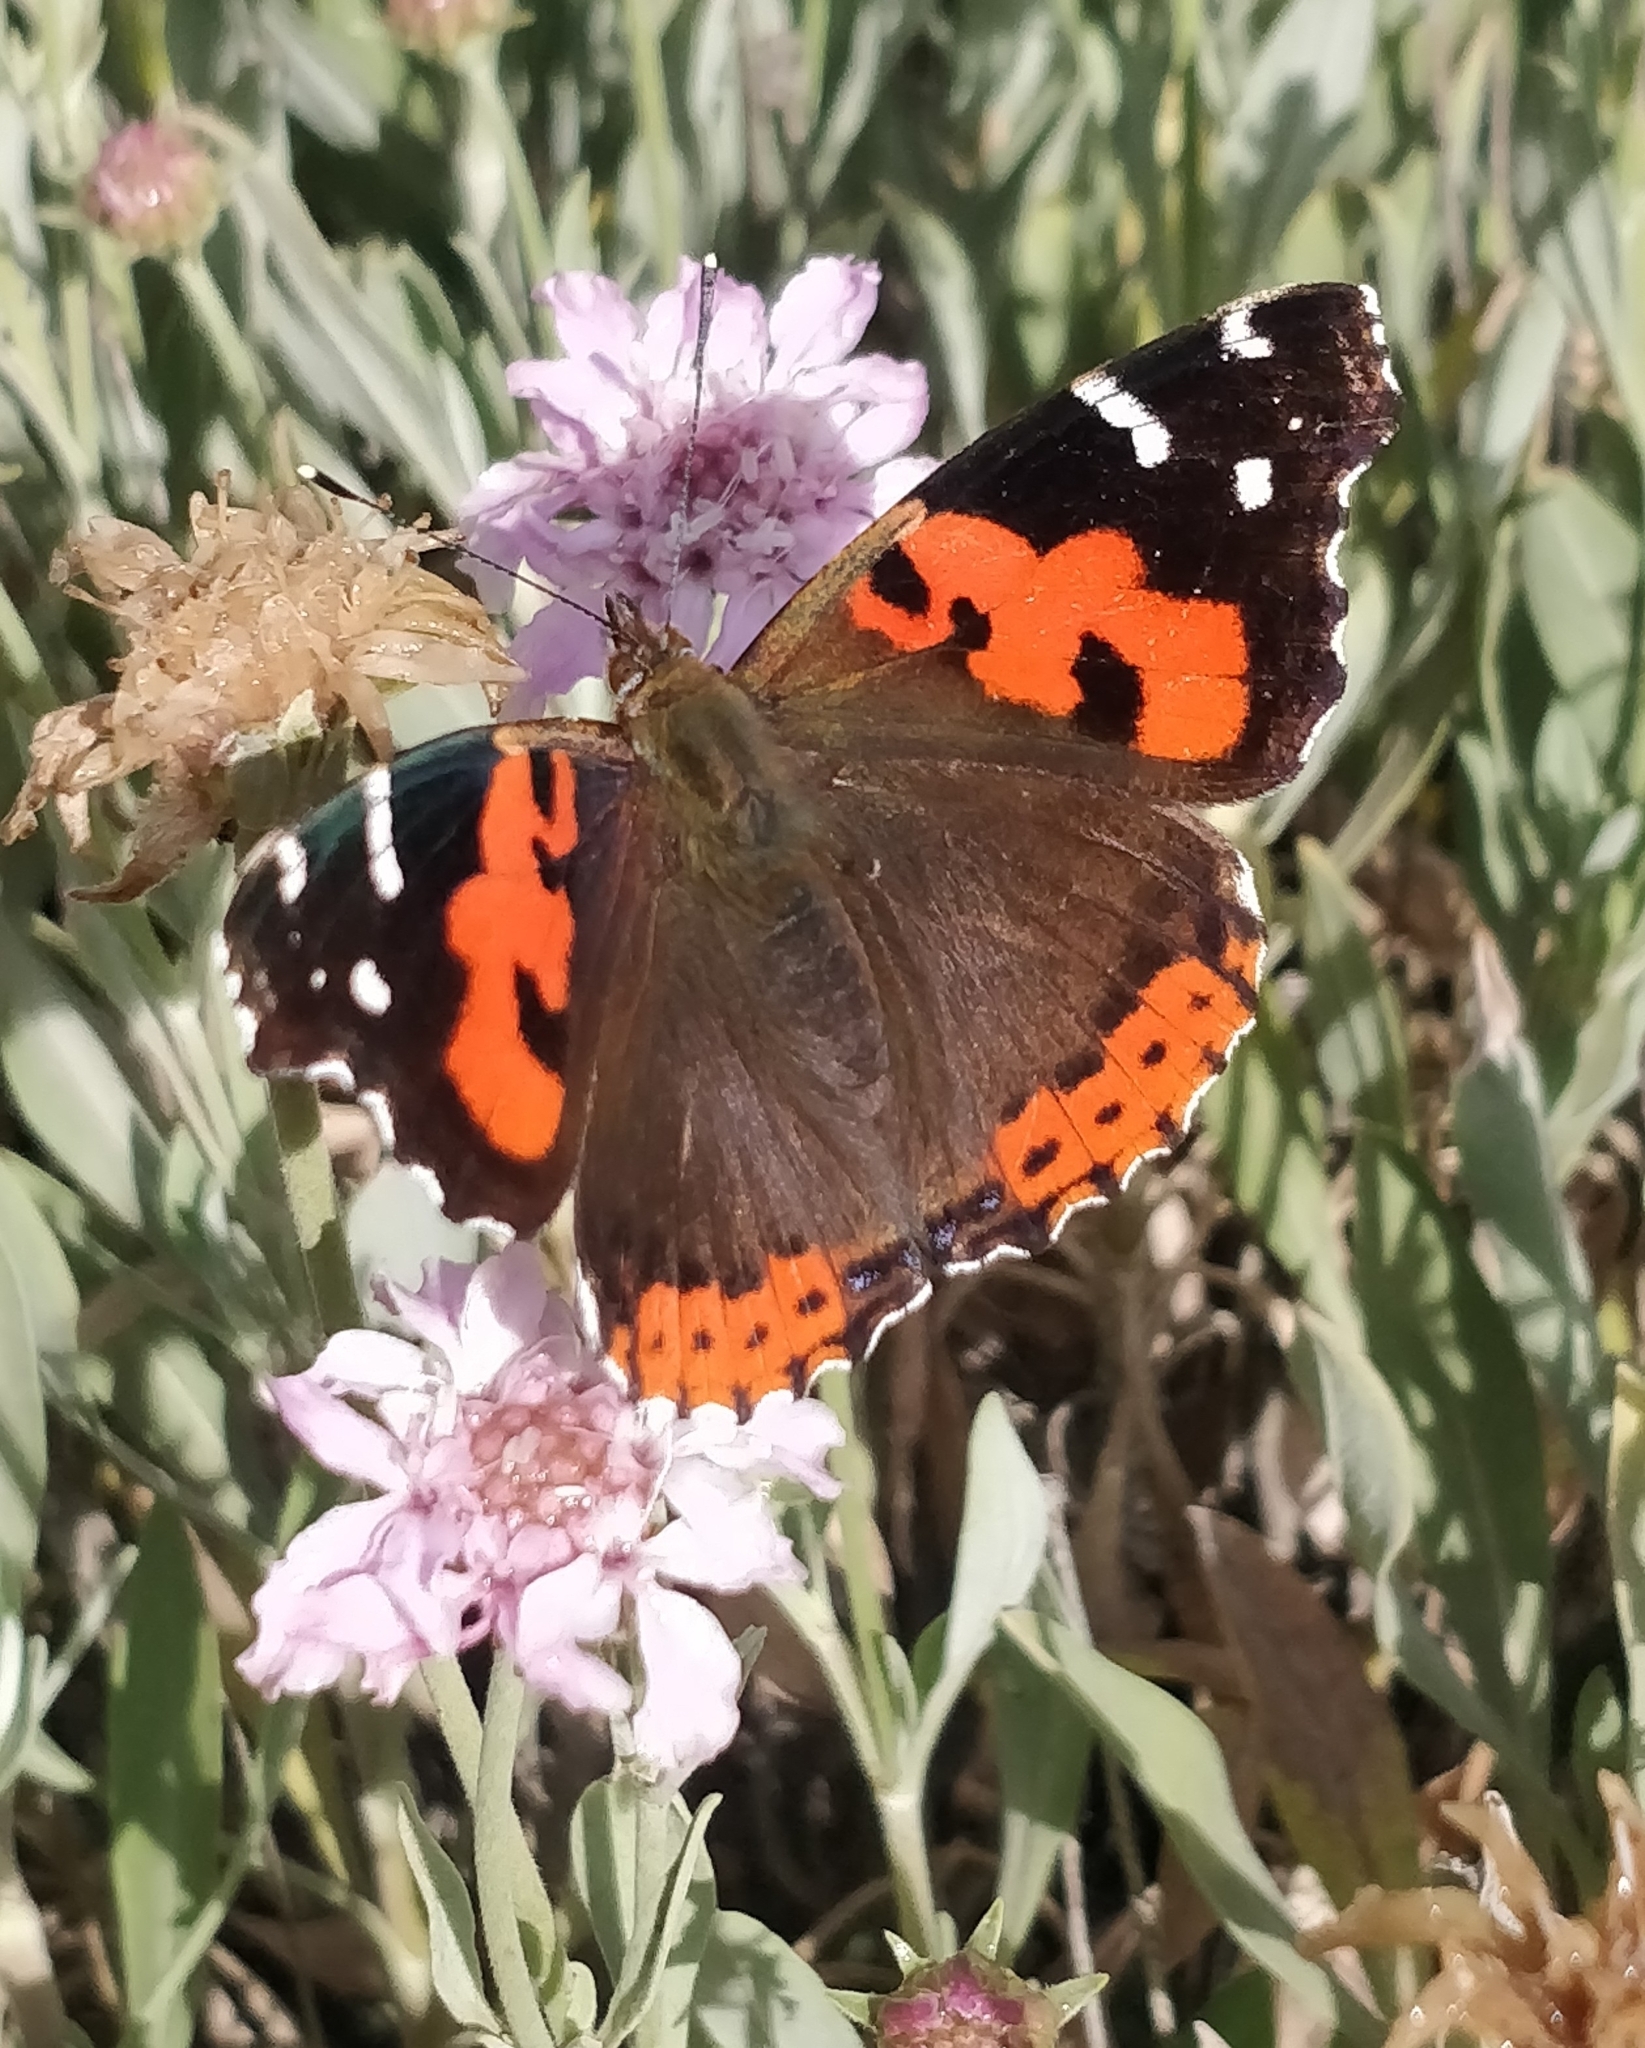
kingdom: Animalia
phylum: Arthropoda
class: Insecta
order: Lepidoptera
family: Nymphalidae
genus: Vanessa
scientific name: Vanessa vulcania
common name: Canary red admiral
